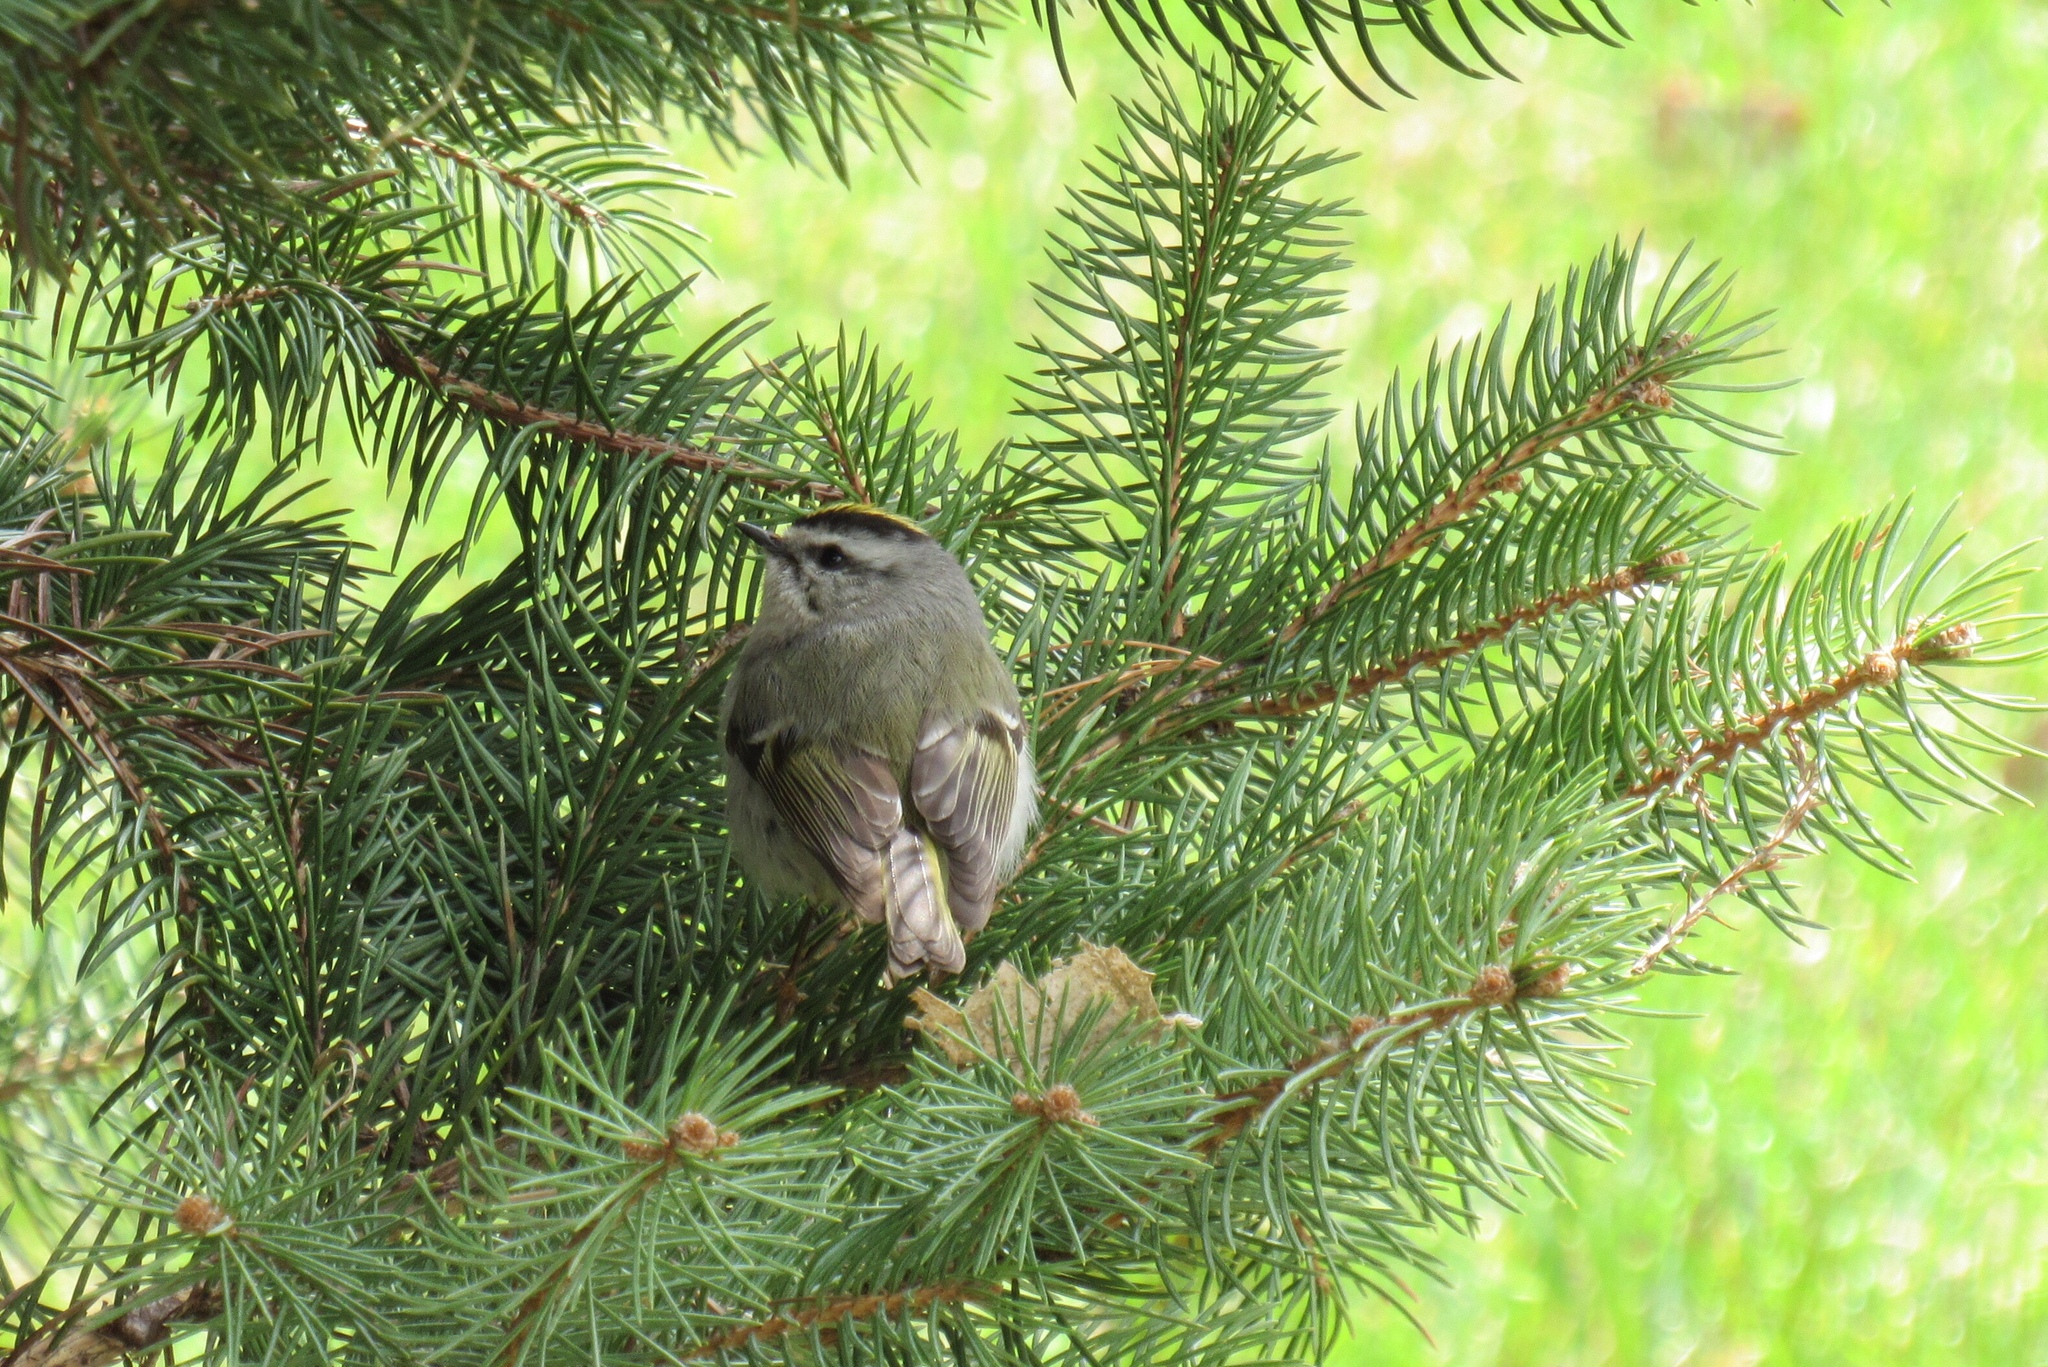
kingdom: Animalia
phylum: Chordata
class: Aves
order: Passeriformes
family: Regulidae
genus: Regulus
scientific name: Regulus satrapa
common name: Golden-crowned kinglet
